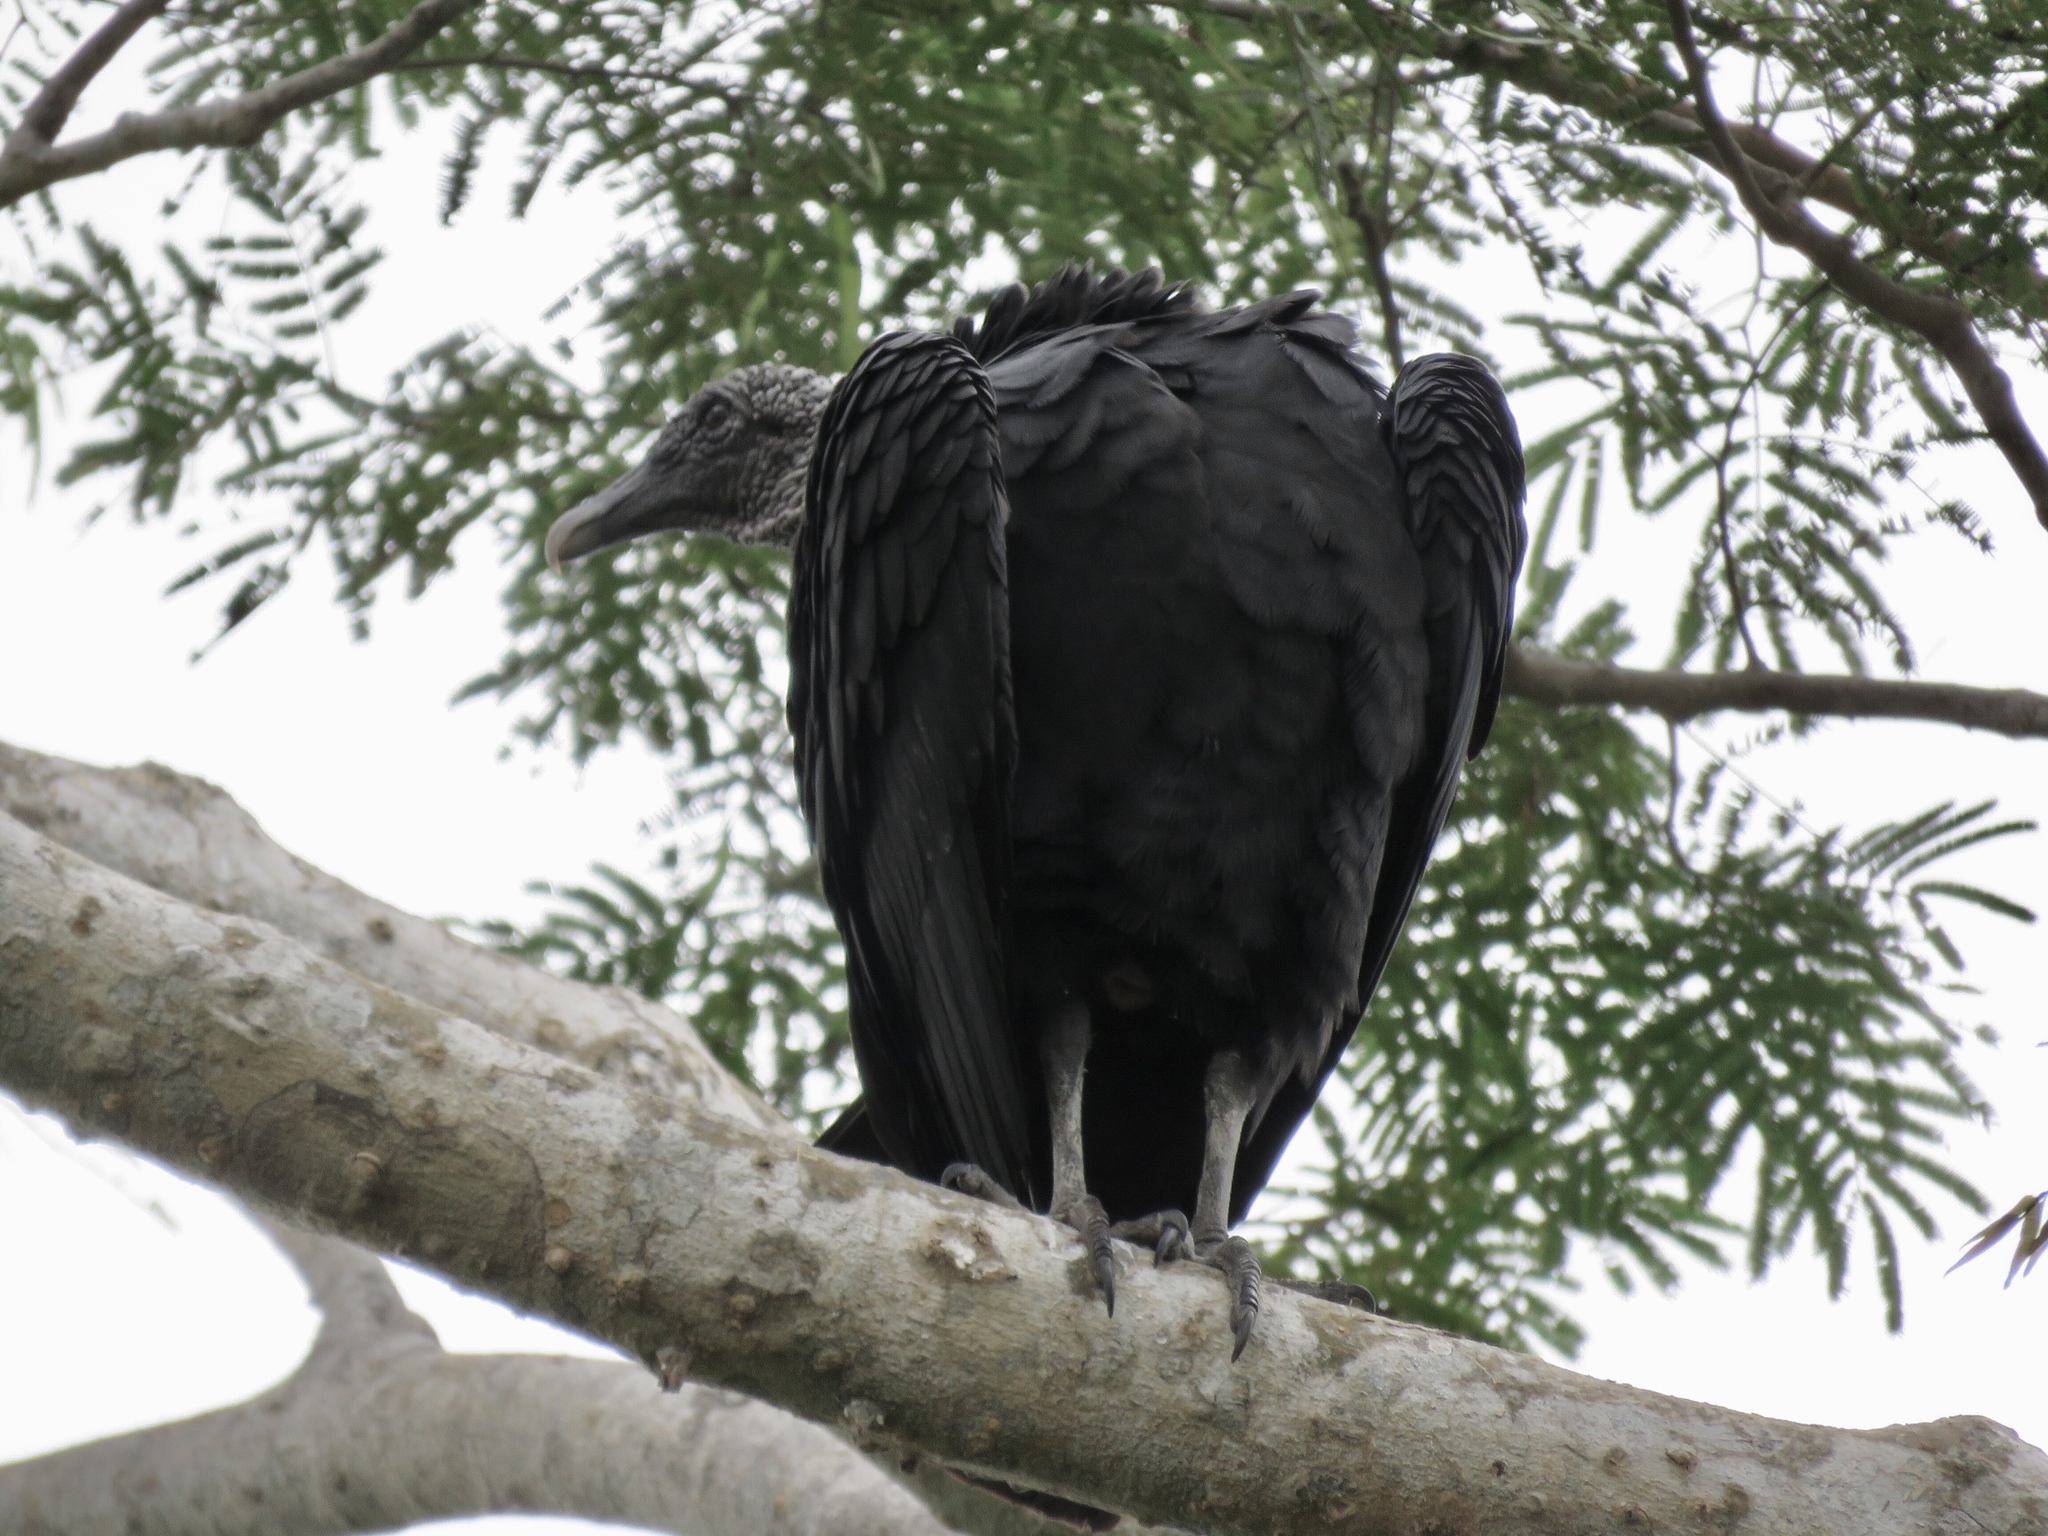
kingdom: Animalia
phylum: Chordata
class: Aves
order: Accipitriformes
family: Cathartidae
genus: Coragyps
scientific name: Coragyps atratus
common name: Black vulture
